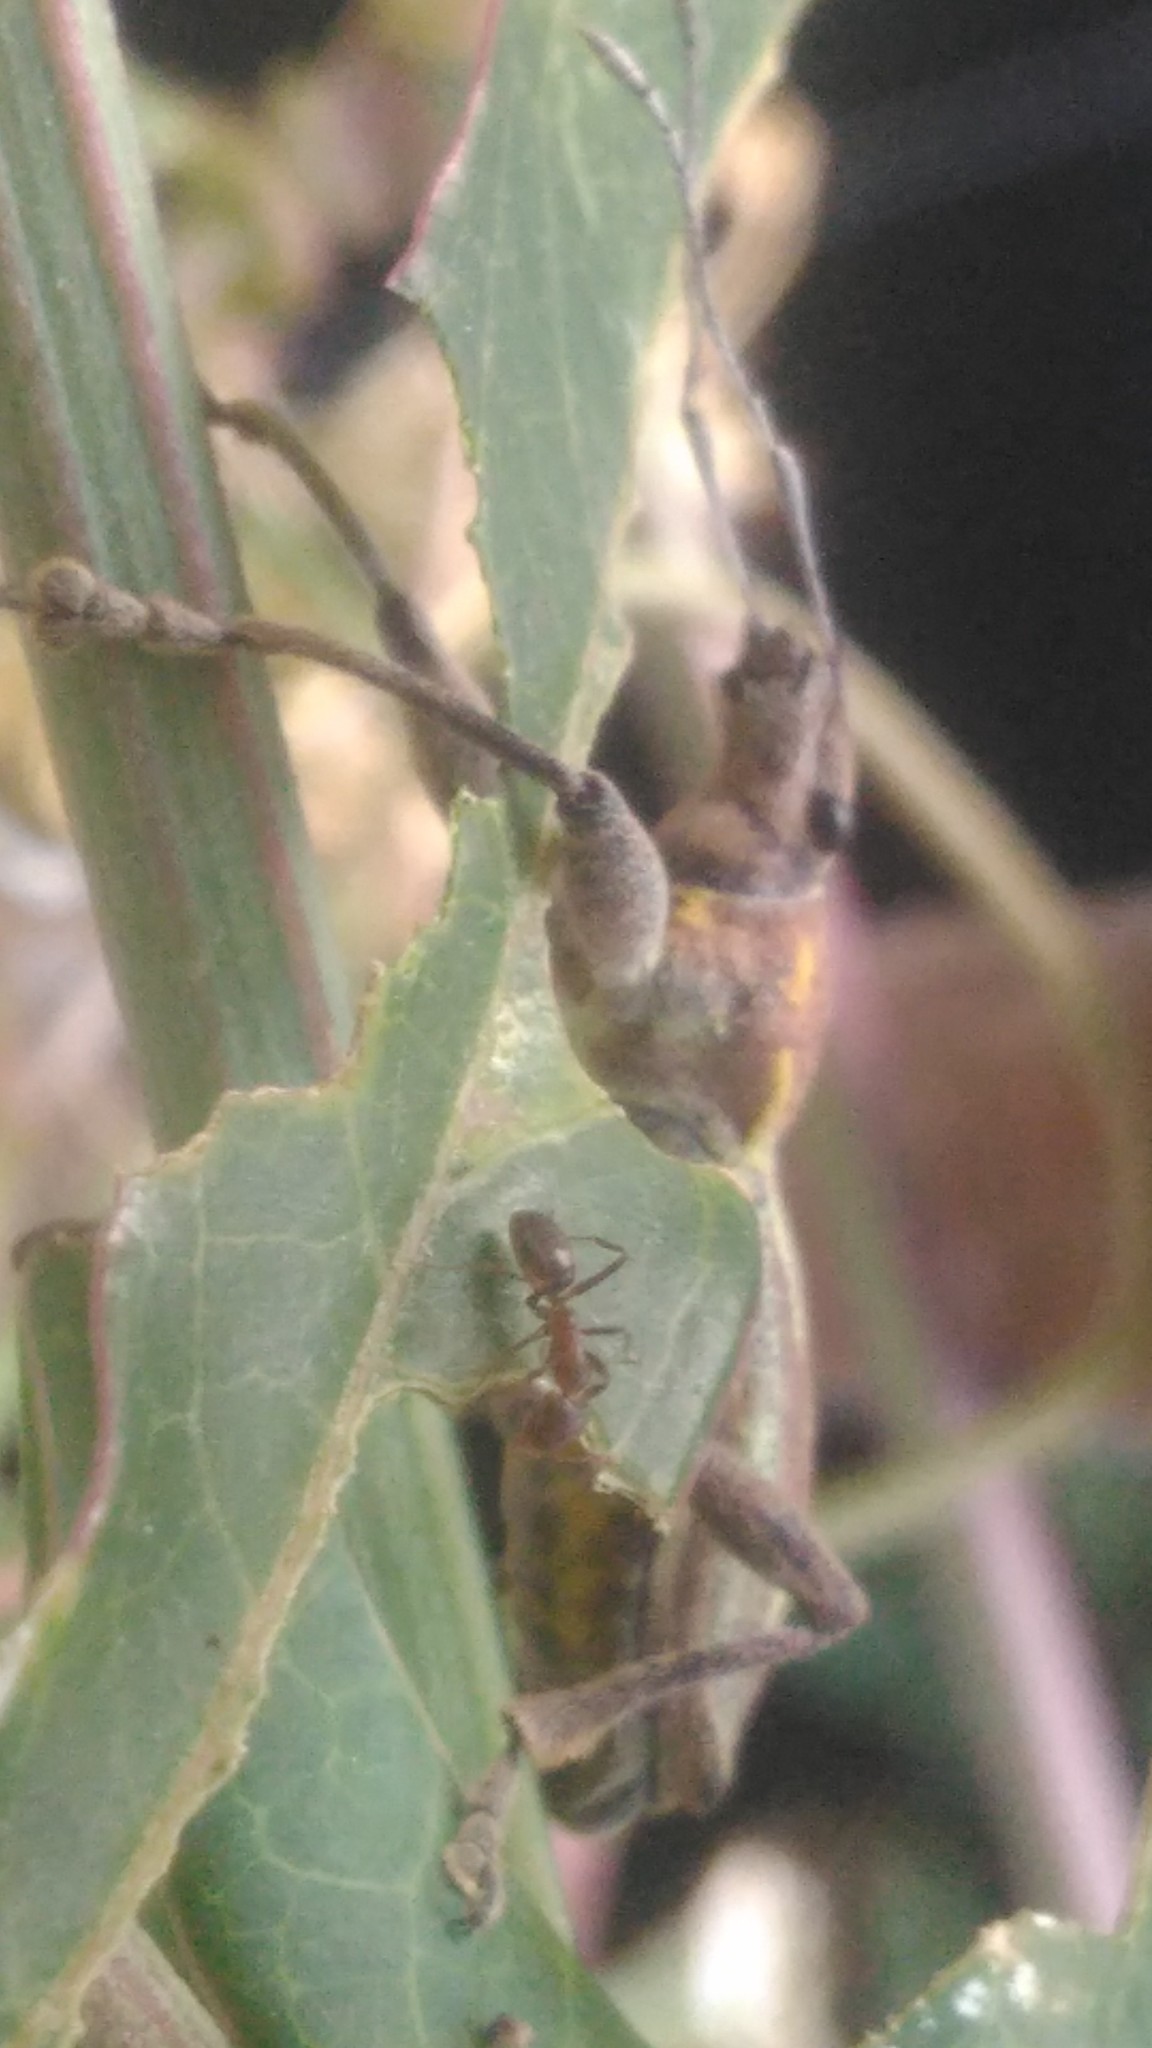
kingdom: Animalia
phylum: Arthropoda
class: Insecta
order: Coleoptera
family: Curculionidae
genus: Naupactus
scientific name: Naupactus xanthographus
